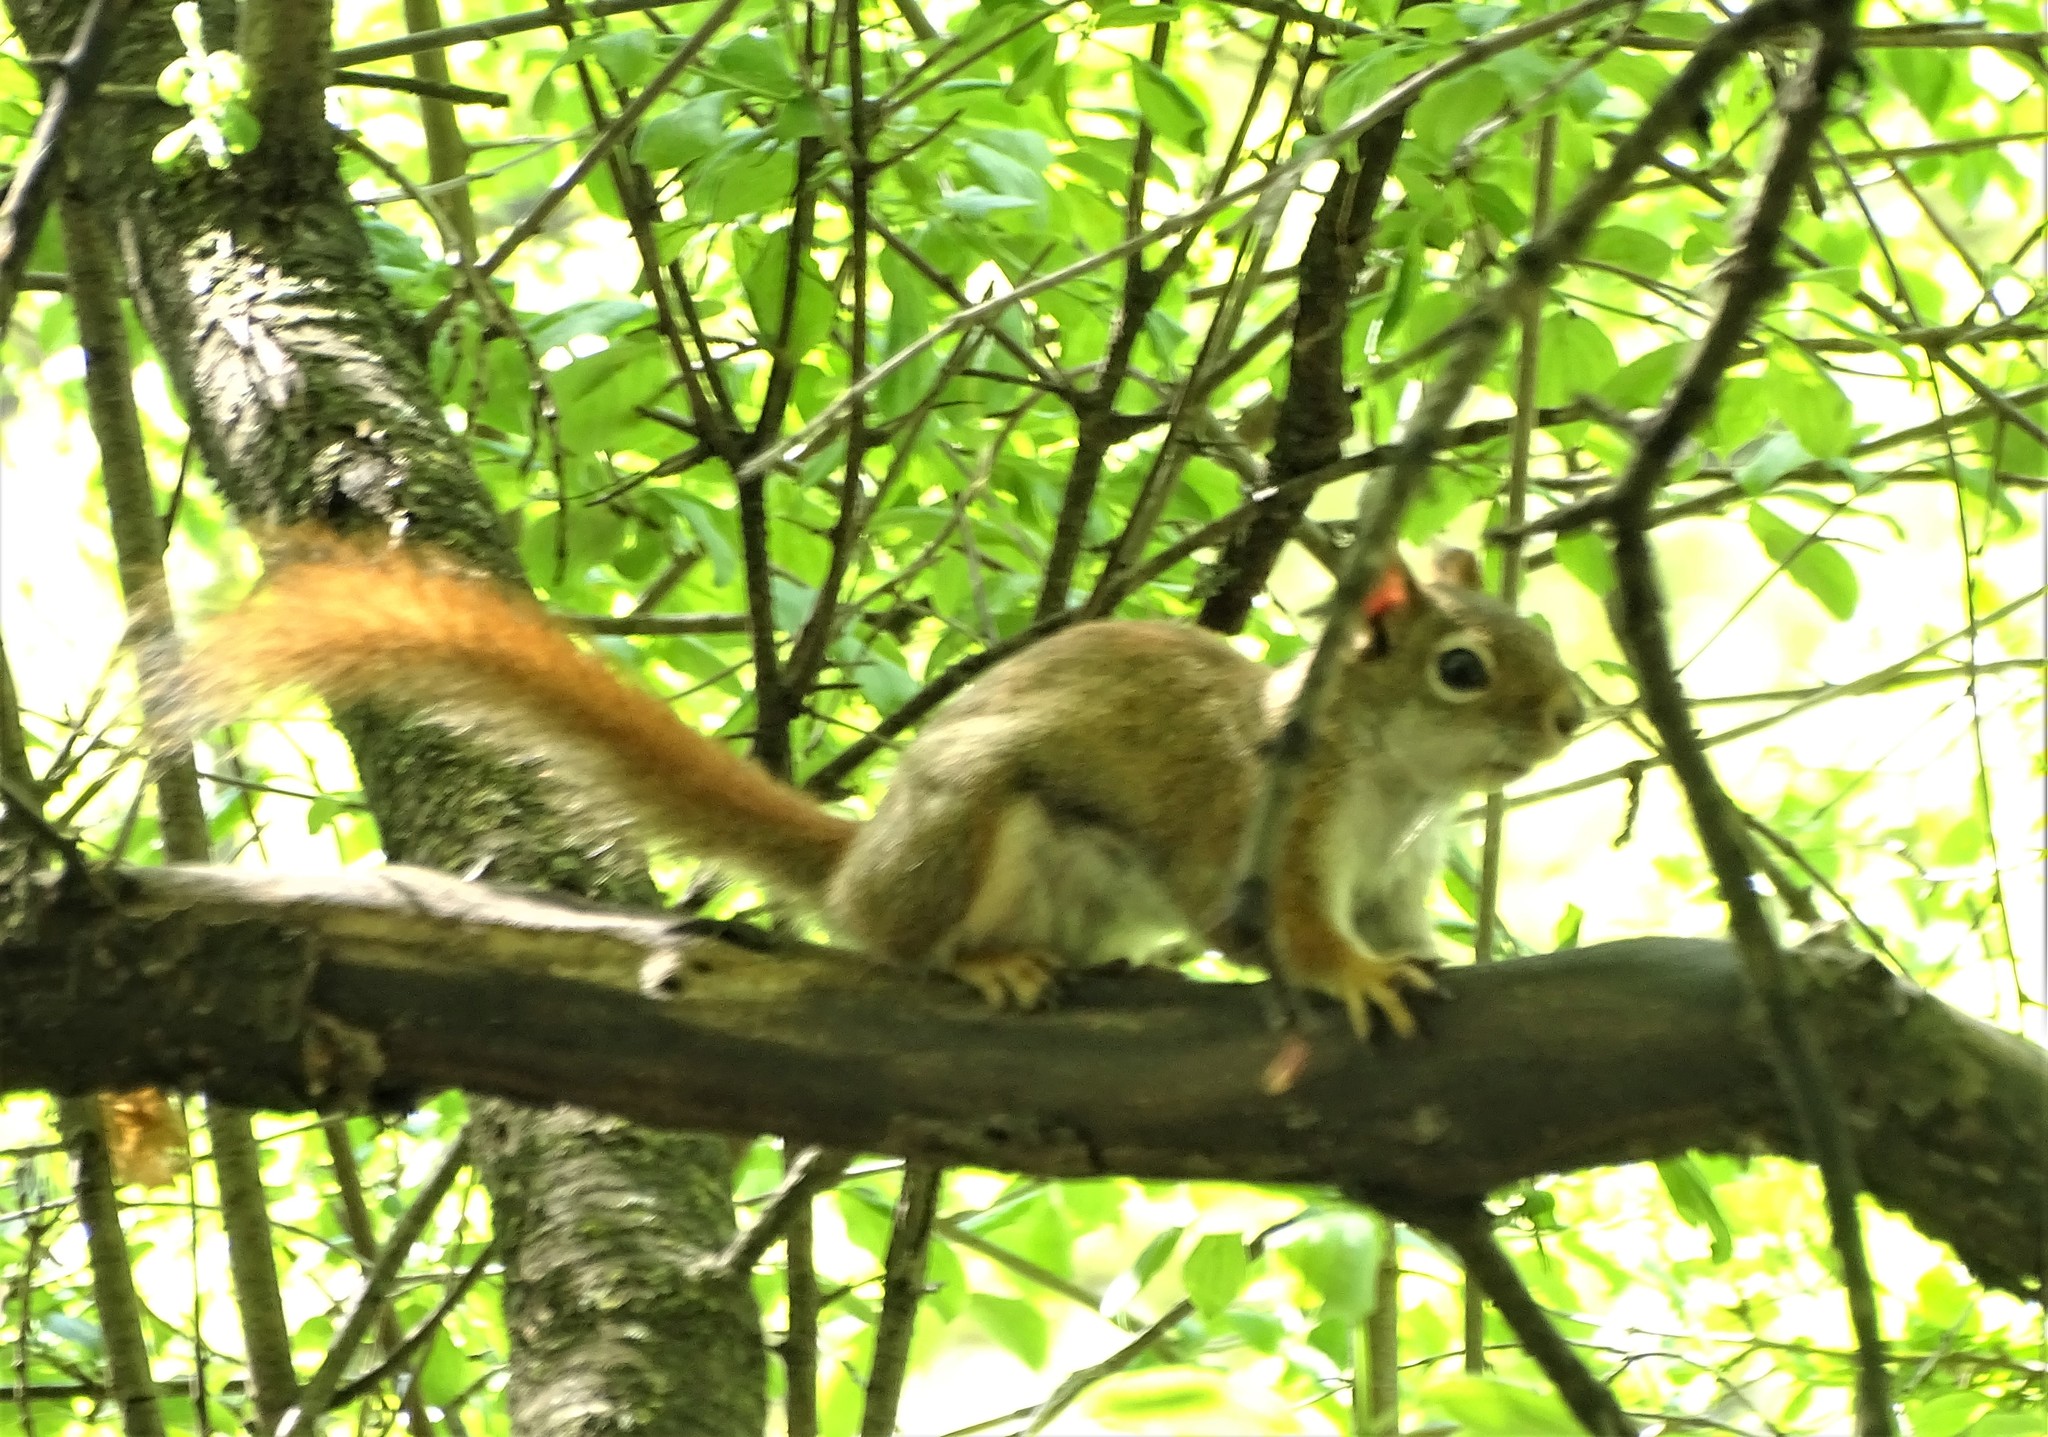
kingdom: Animalia
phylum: Chordata
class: Mammalia
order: Rodentia
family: Sciuridae
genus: Tamiasciurus
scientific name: Tamiasciurus hudsonicus
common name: Red squirrel
